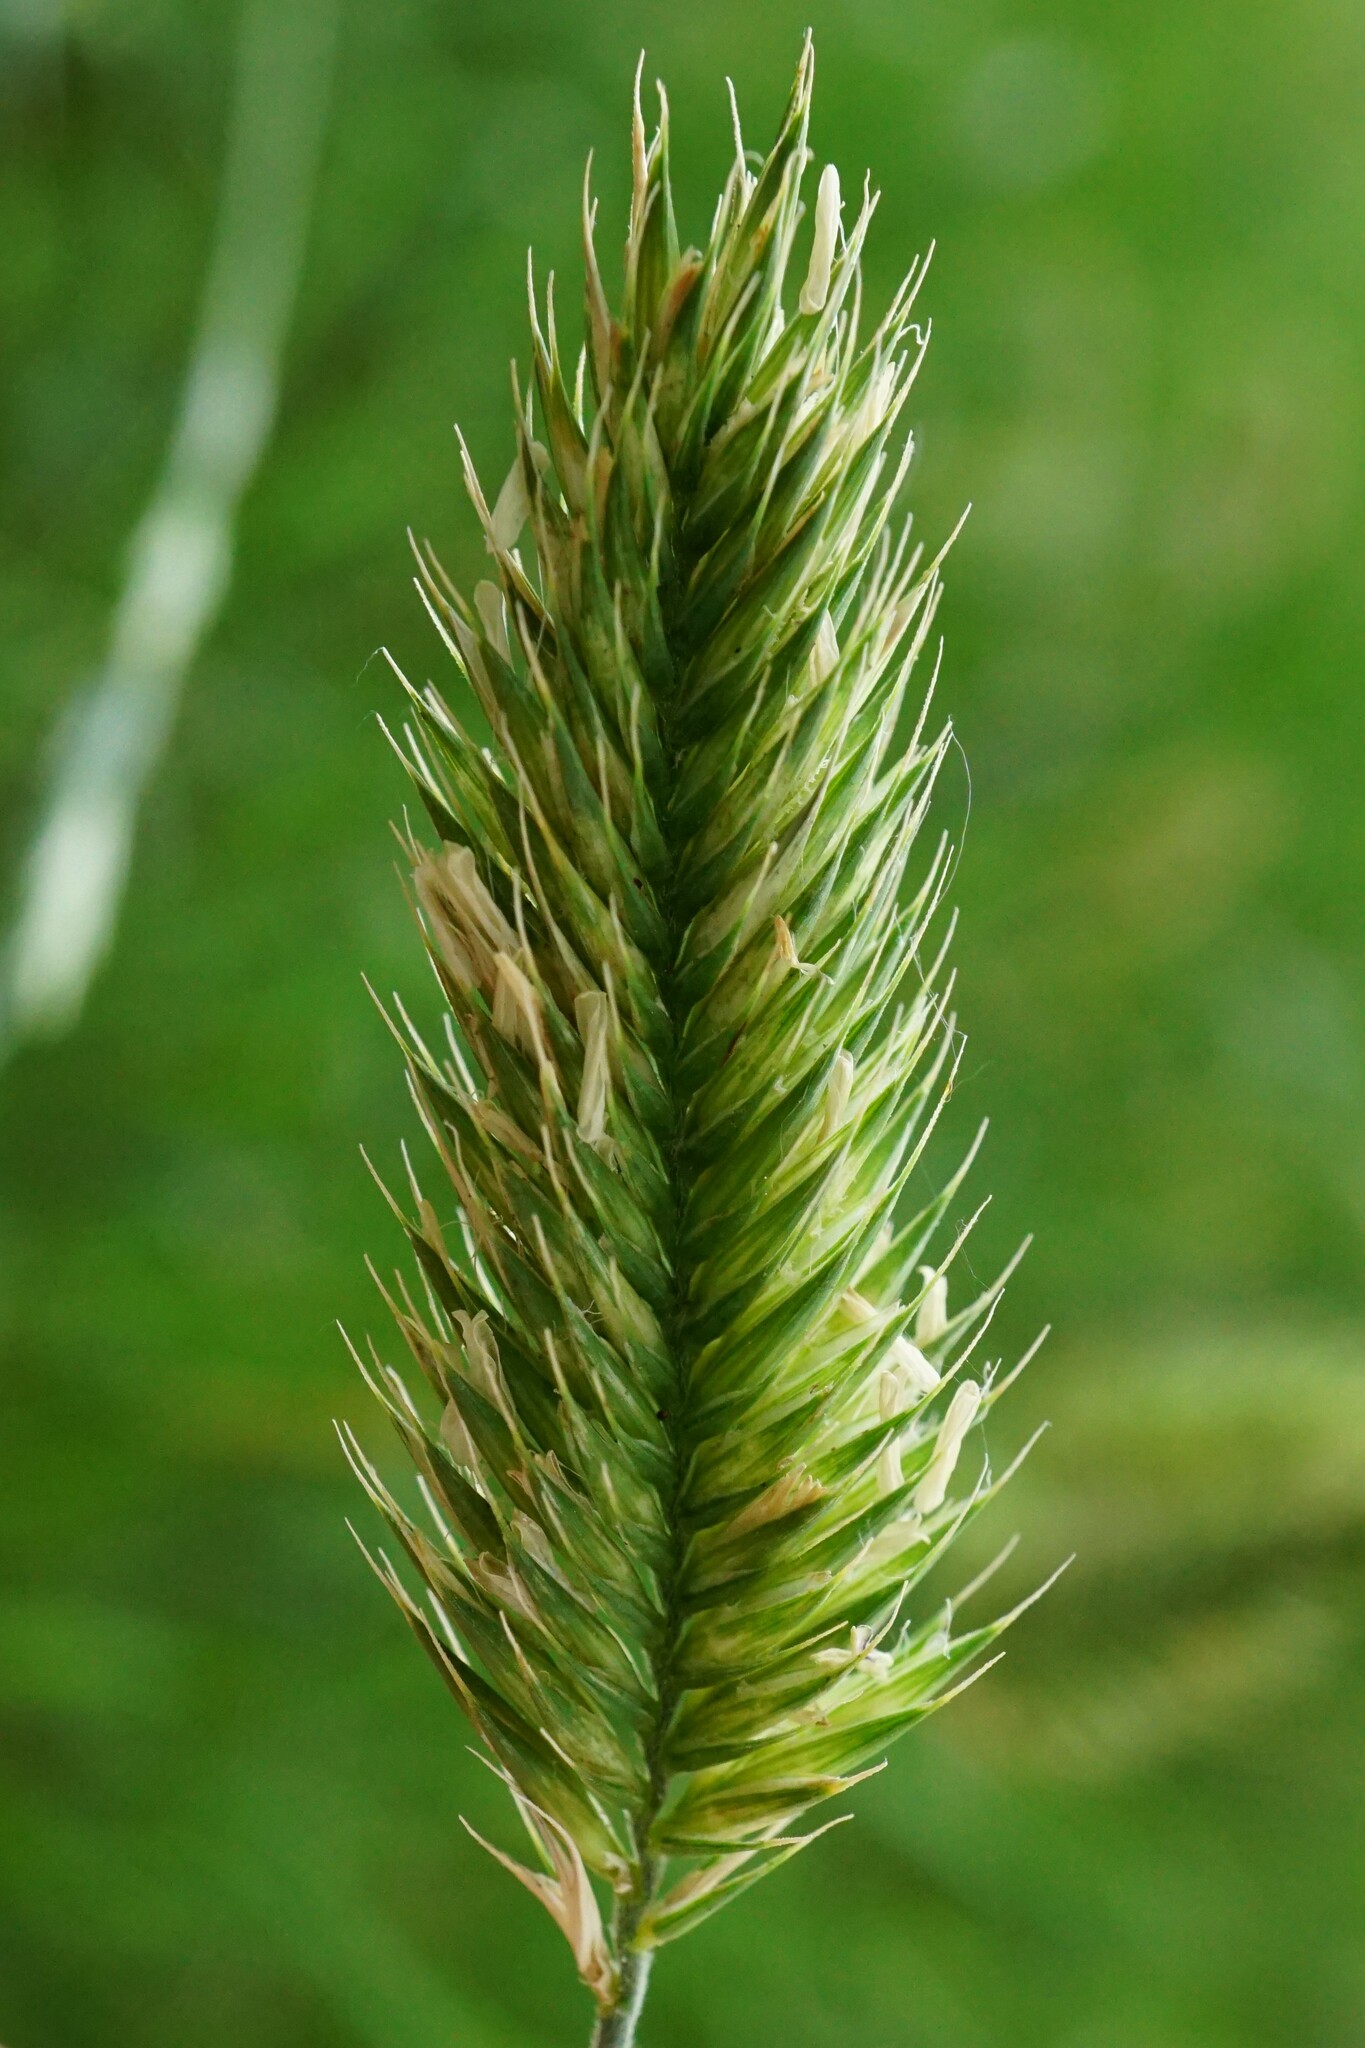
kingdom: Plantae
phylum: Tracheophyta
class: Liliopsida
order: Poales
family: Poaceae
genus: Agropyron
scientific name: Agropyron cristatum
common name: Crested wheatgrass
